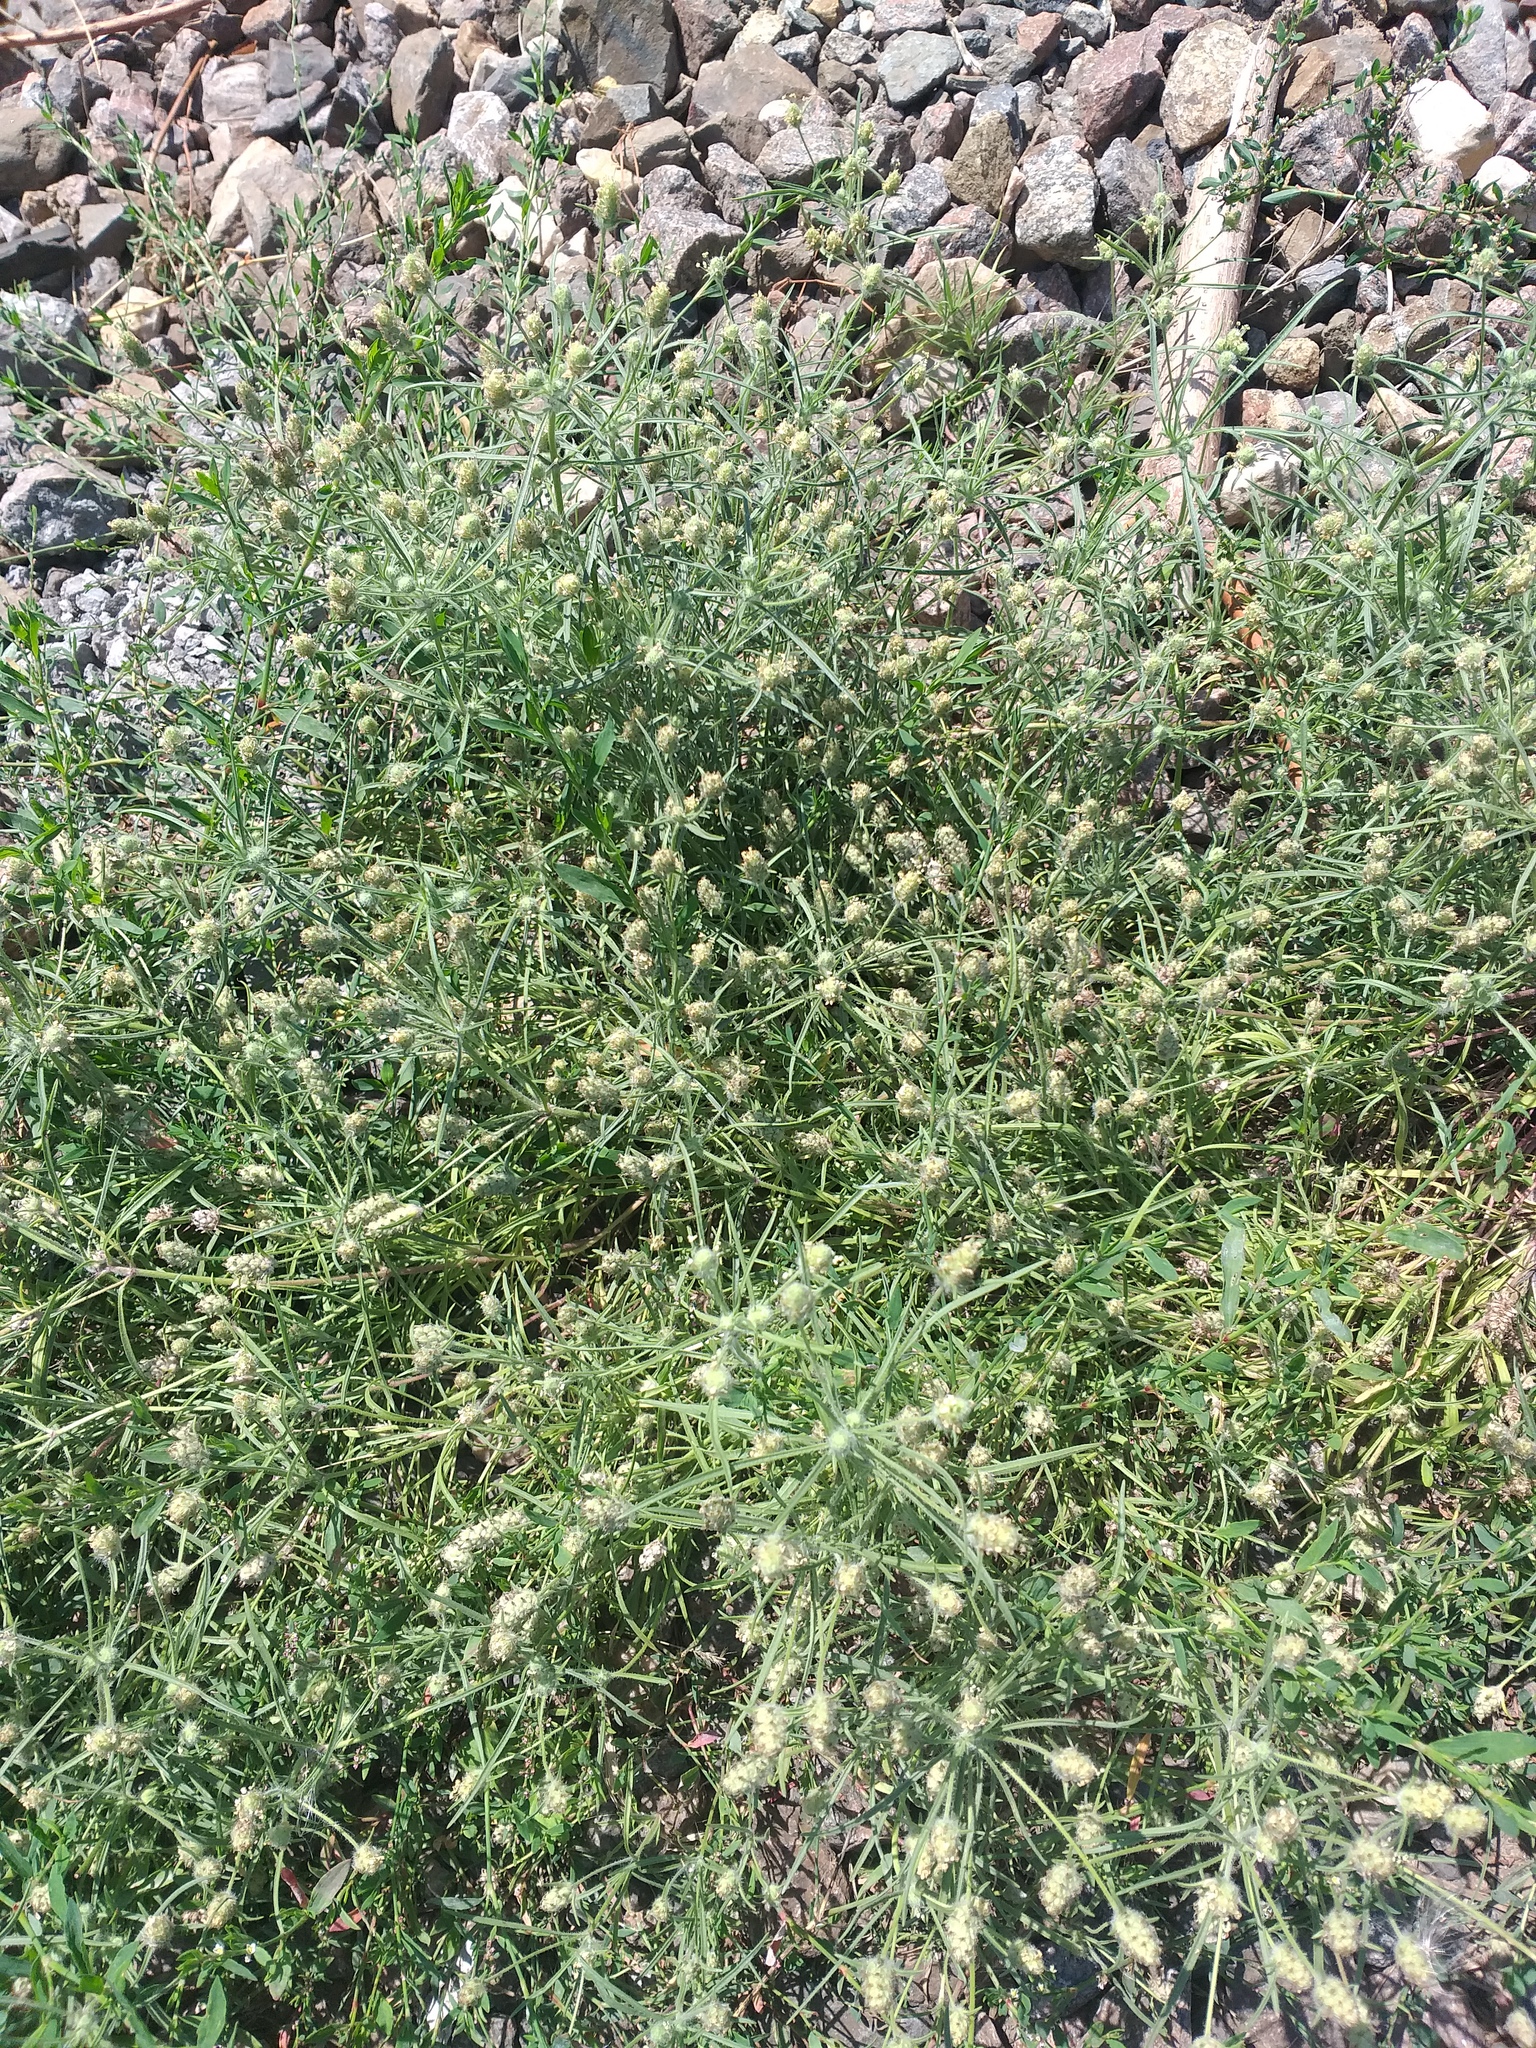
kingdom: Plantae
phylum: Tracheophyta
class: Magnoliopsida
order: Lamiales
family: Plantaginaceae
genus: Plantago
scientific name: Plantago arenaria
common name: Branched plantain
